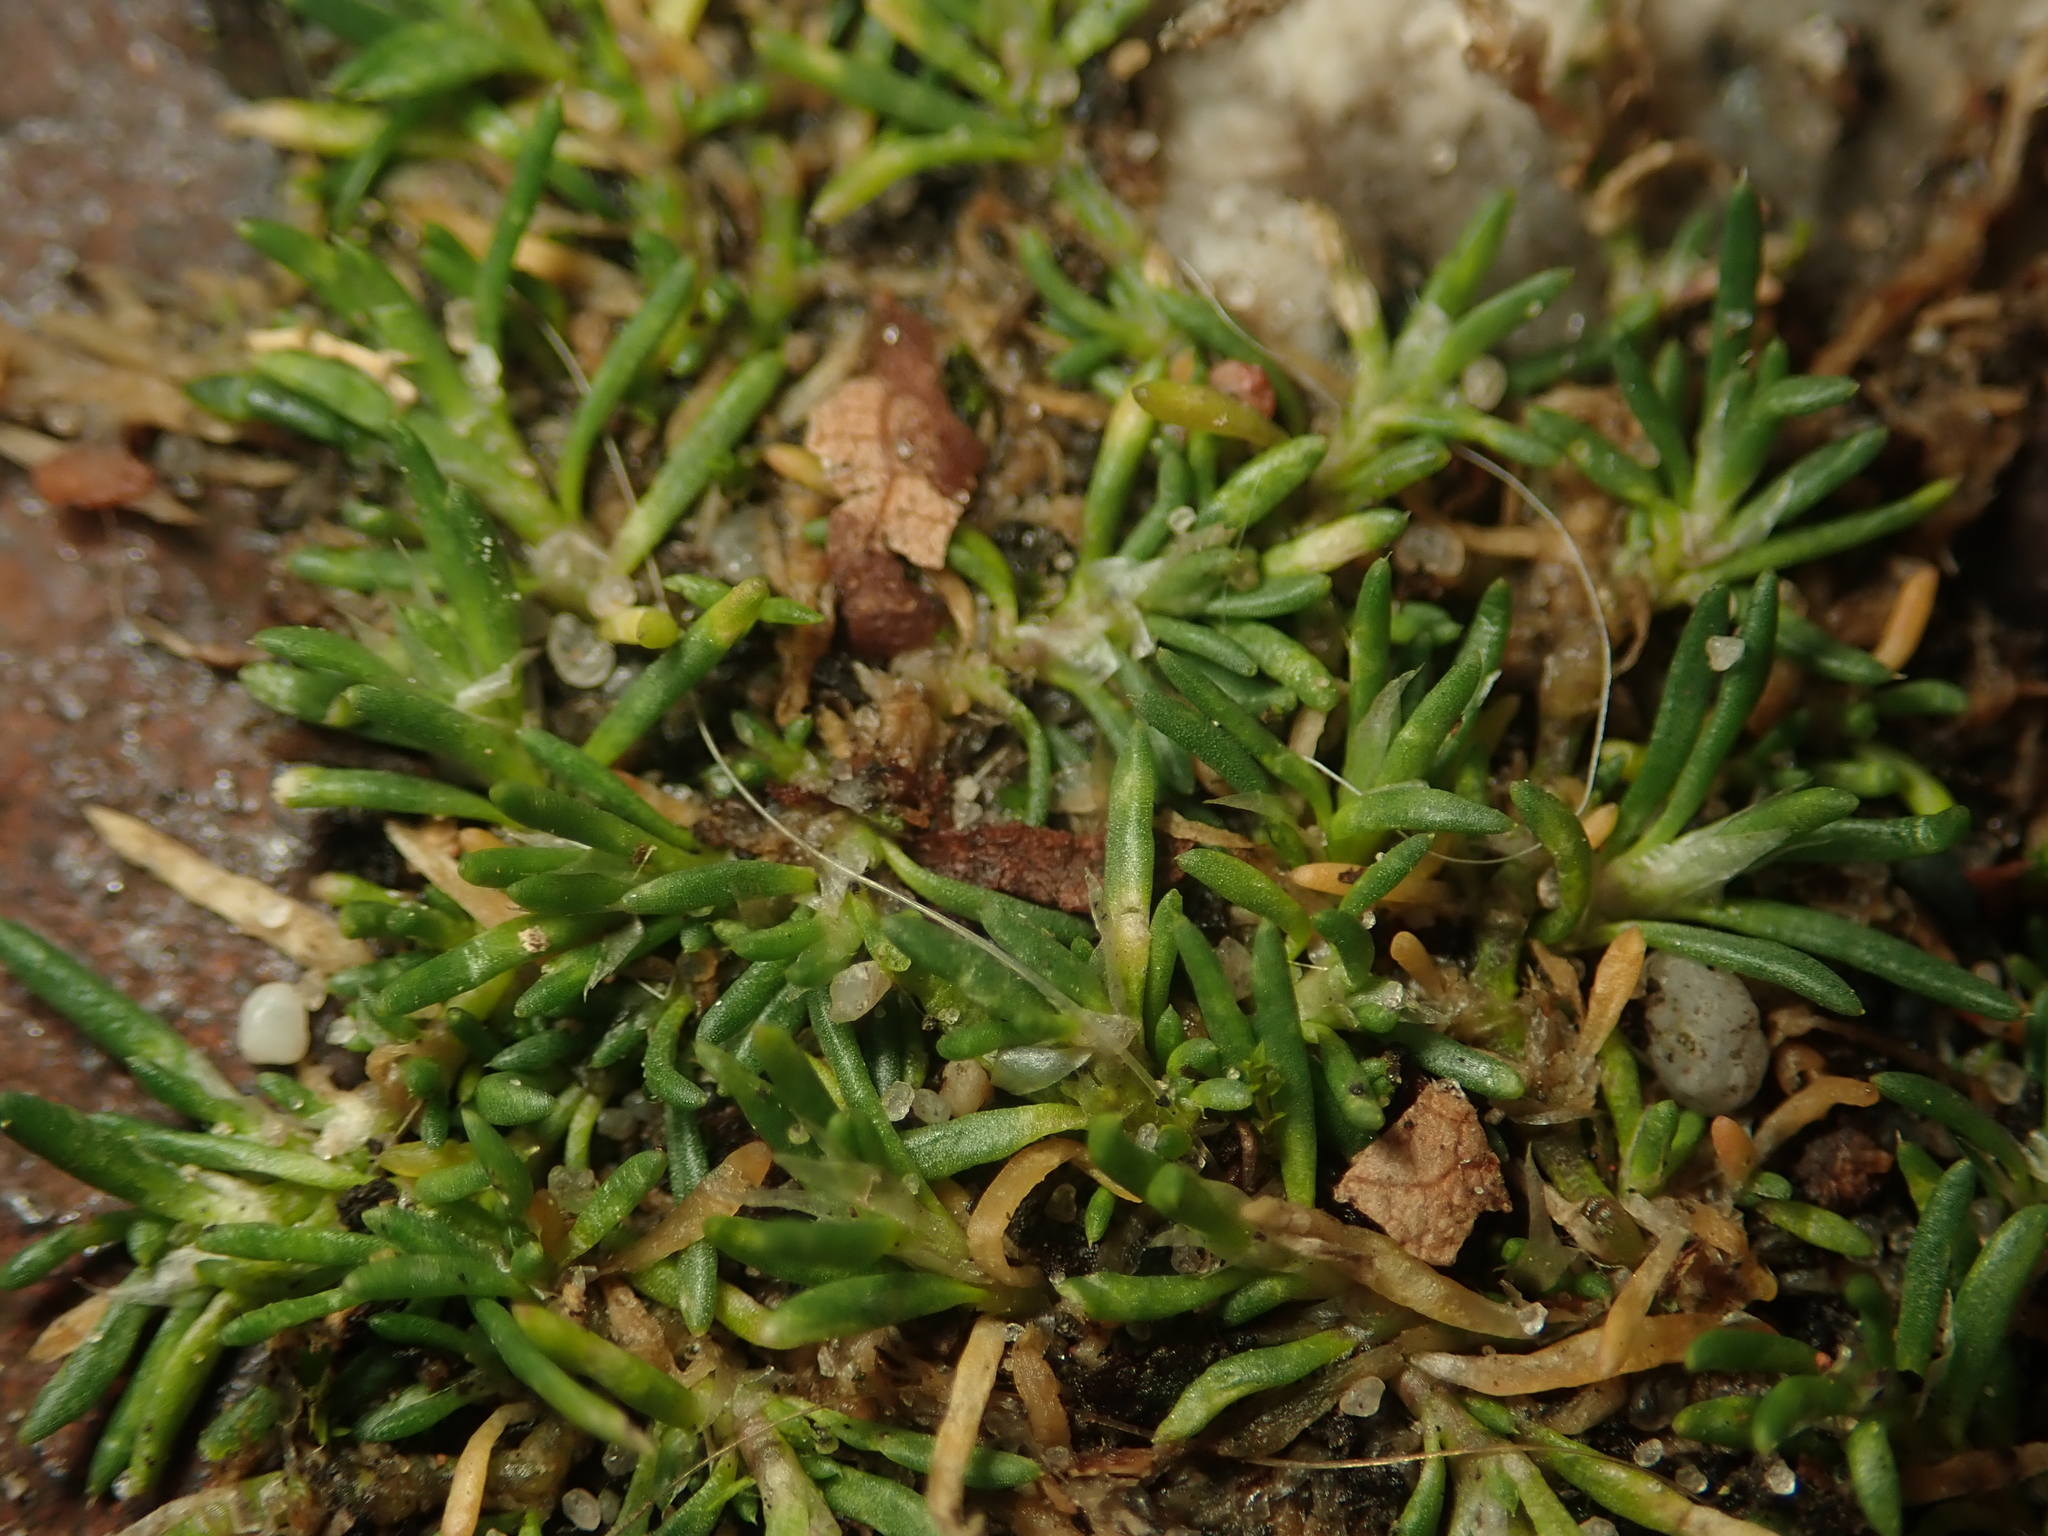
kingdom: Plantae
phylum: Tracheophyta
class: Magnoliopsida
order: Caryophyllales
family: Caryophyllaceae
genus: Sagina
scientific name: Sagina procumbens
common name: Procumbent pearlwort
